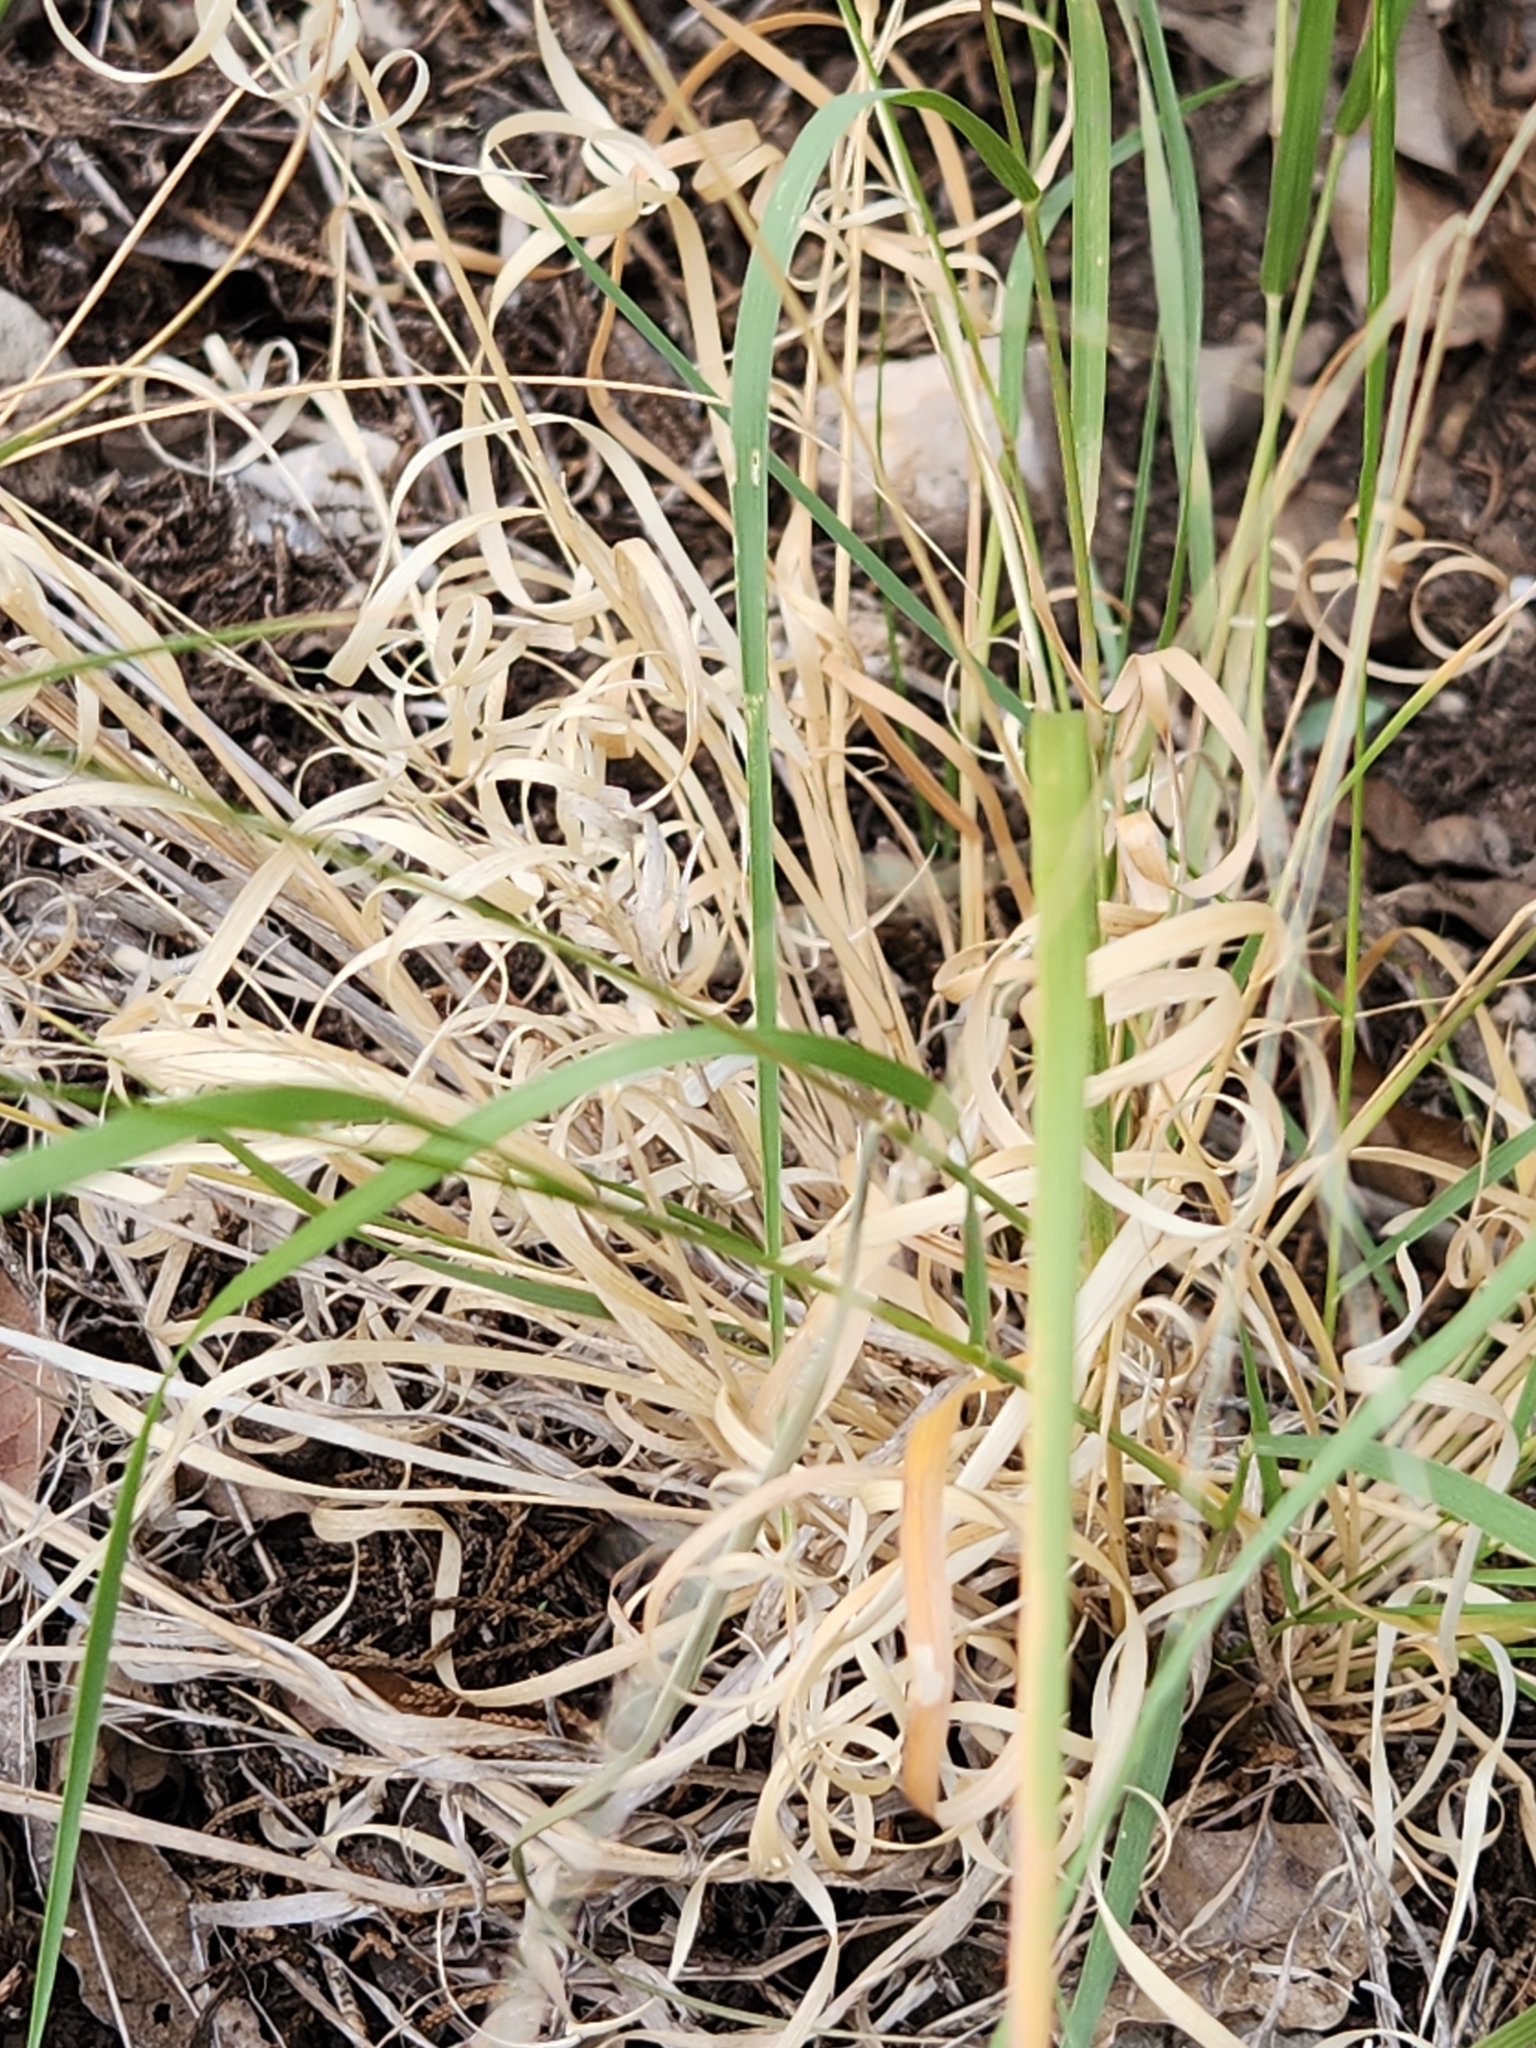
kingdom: Plantae
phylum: Tracheophyta
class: Liliopsida
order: Poales
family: Poaceae
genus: Panicum
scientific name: Panicum hallii
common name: Hall's witchgrass
